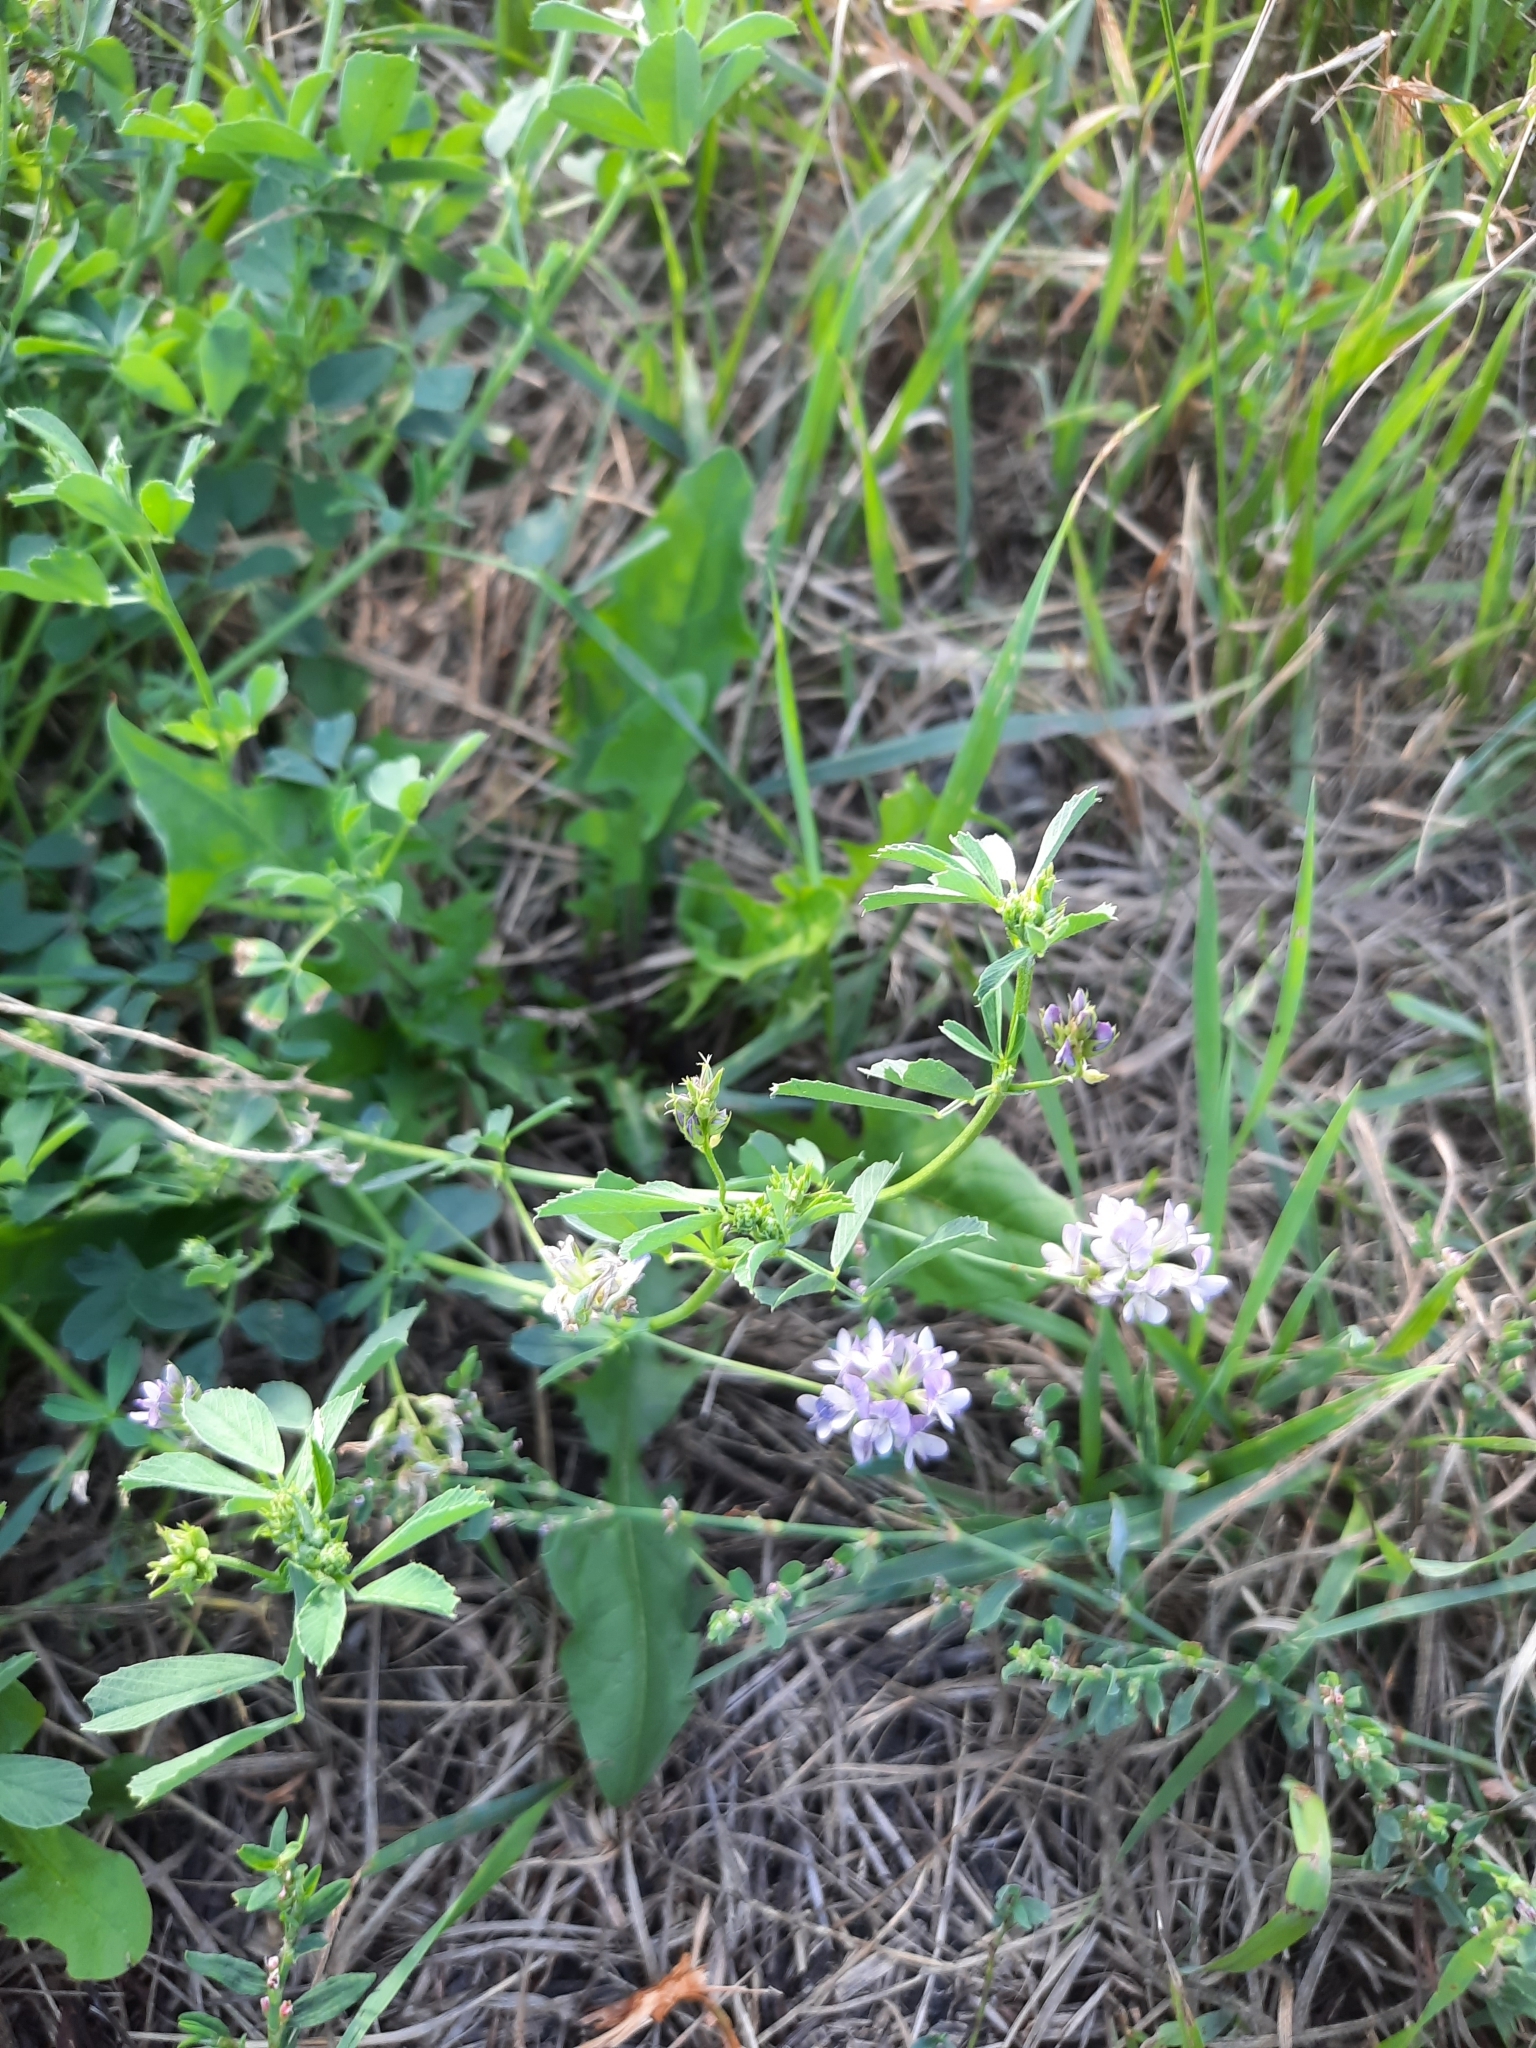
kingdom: Plantae
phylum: Tracheophyta
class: Magnoliopsida
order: Fabales
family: Fabaceae
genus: Medicago
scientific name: Medicago varia
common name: Sand lucerne
